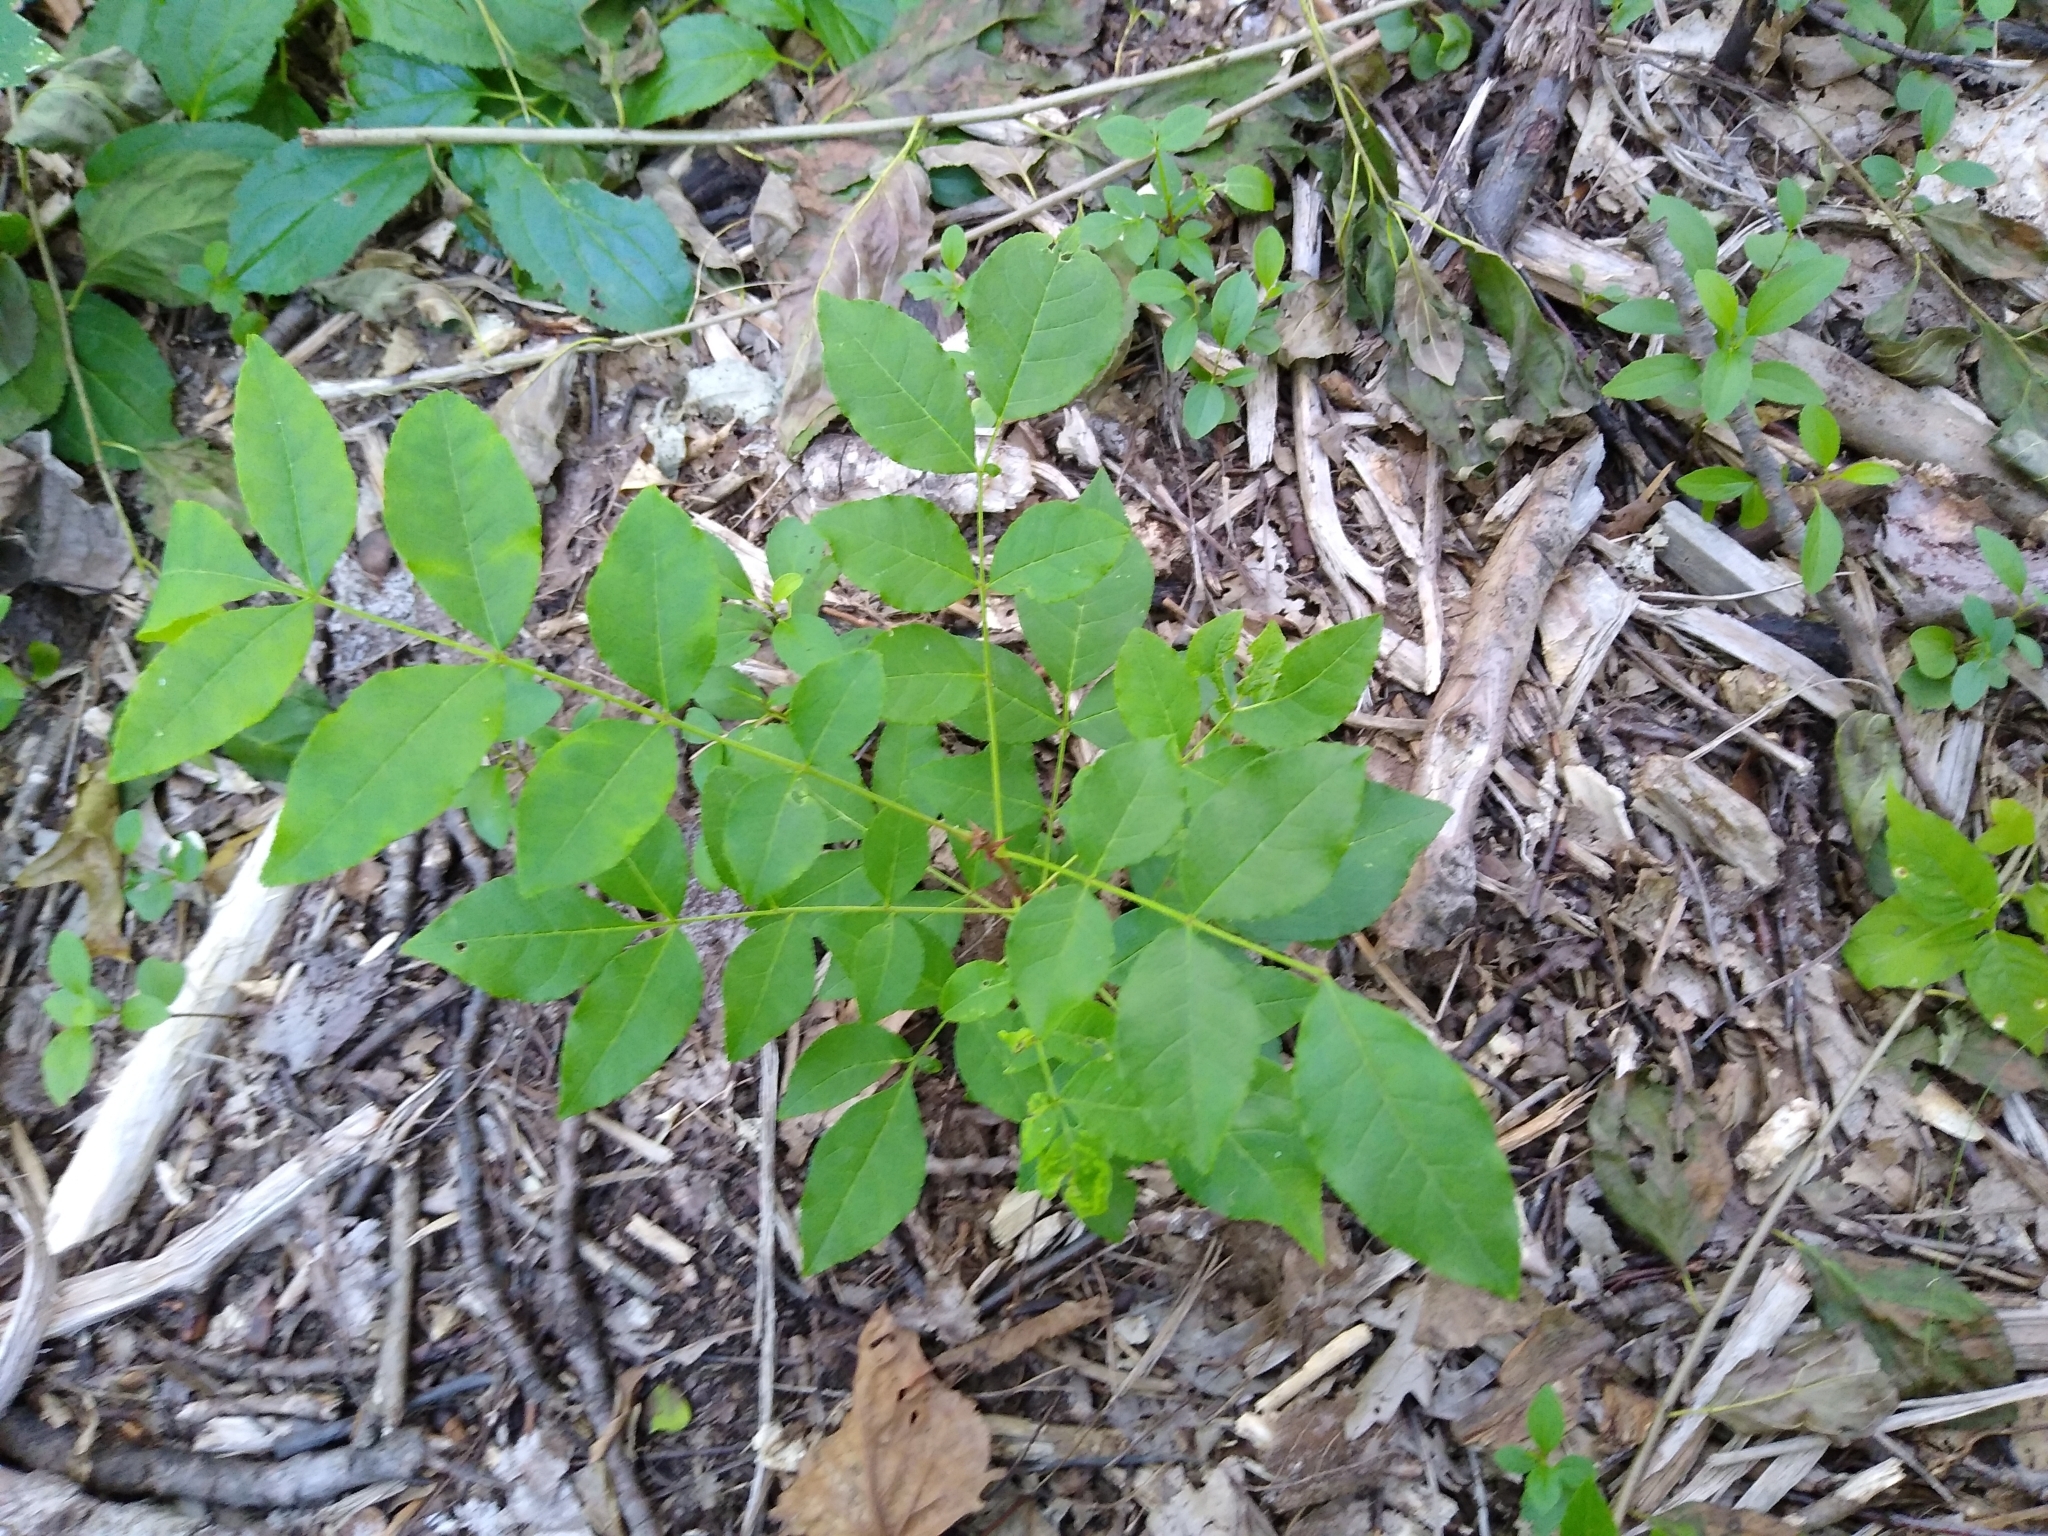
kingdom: Plantae
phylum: Tracheophyta
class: Magnoliopsida
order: Sapindales
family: Rutaceae
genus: Zanthoxylum
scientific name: Zanthoxylum americanum
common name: Northern prickly-ash
